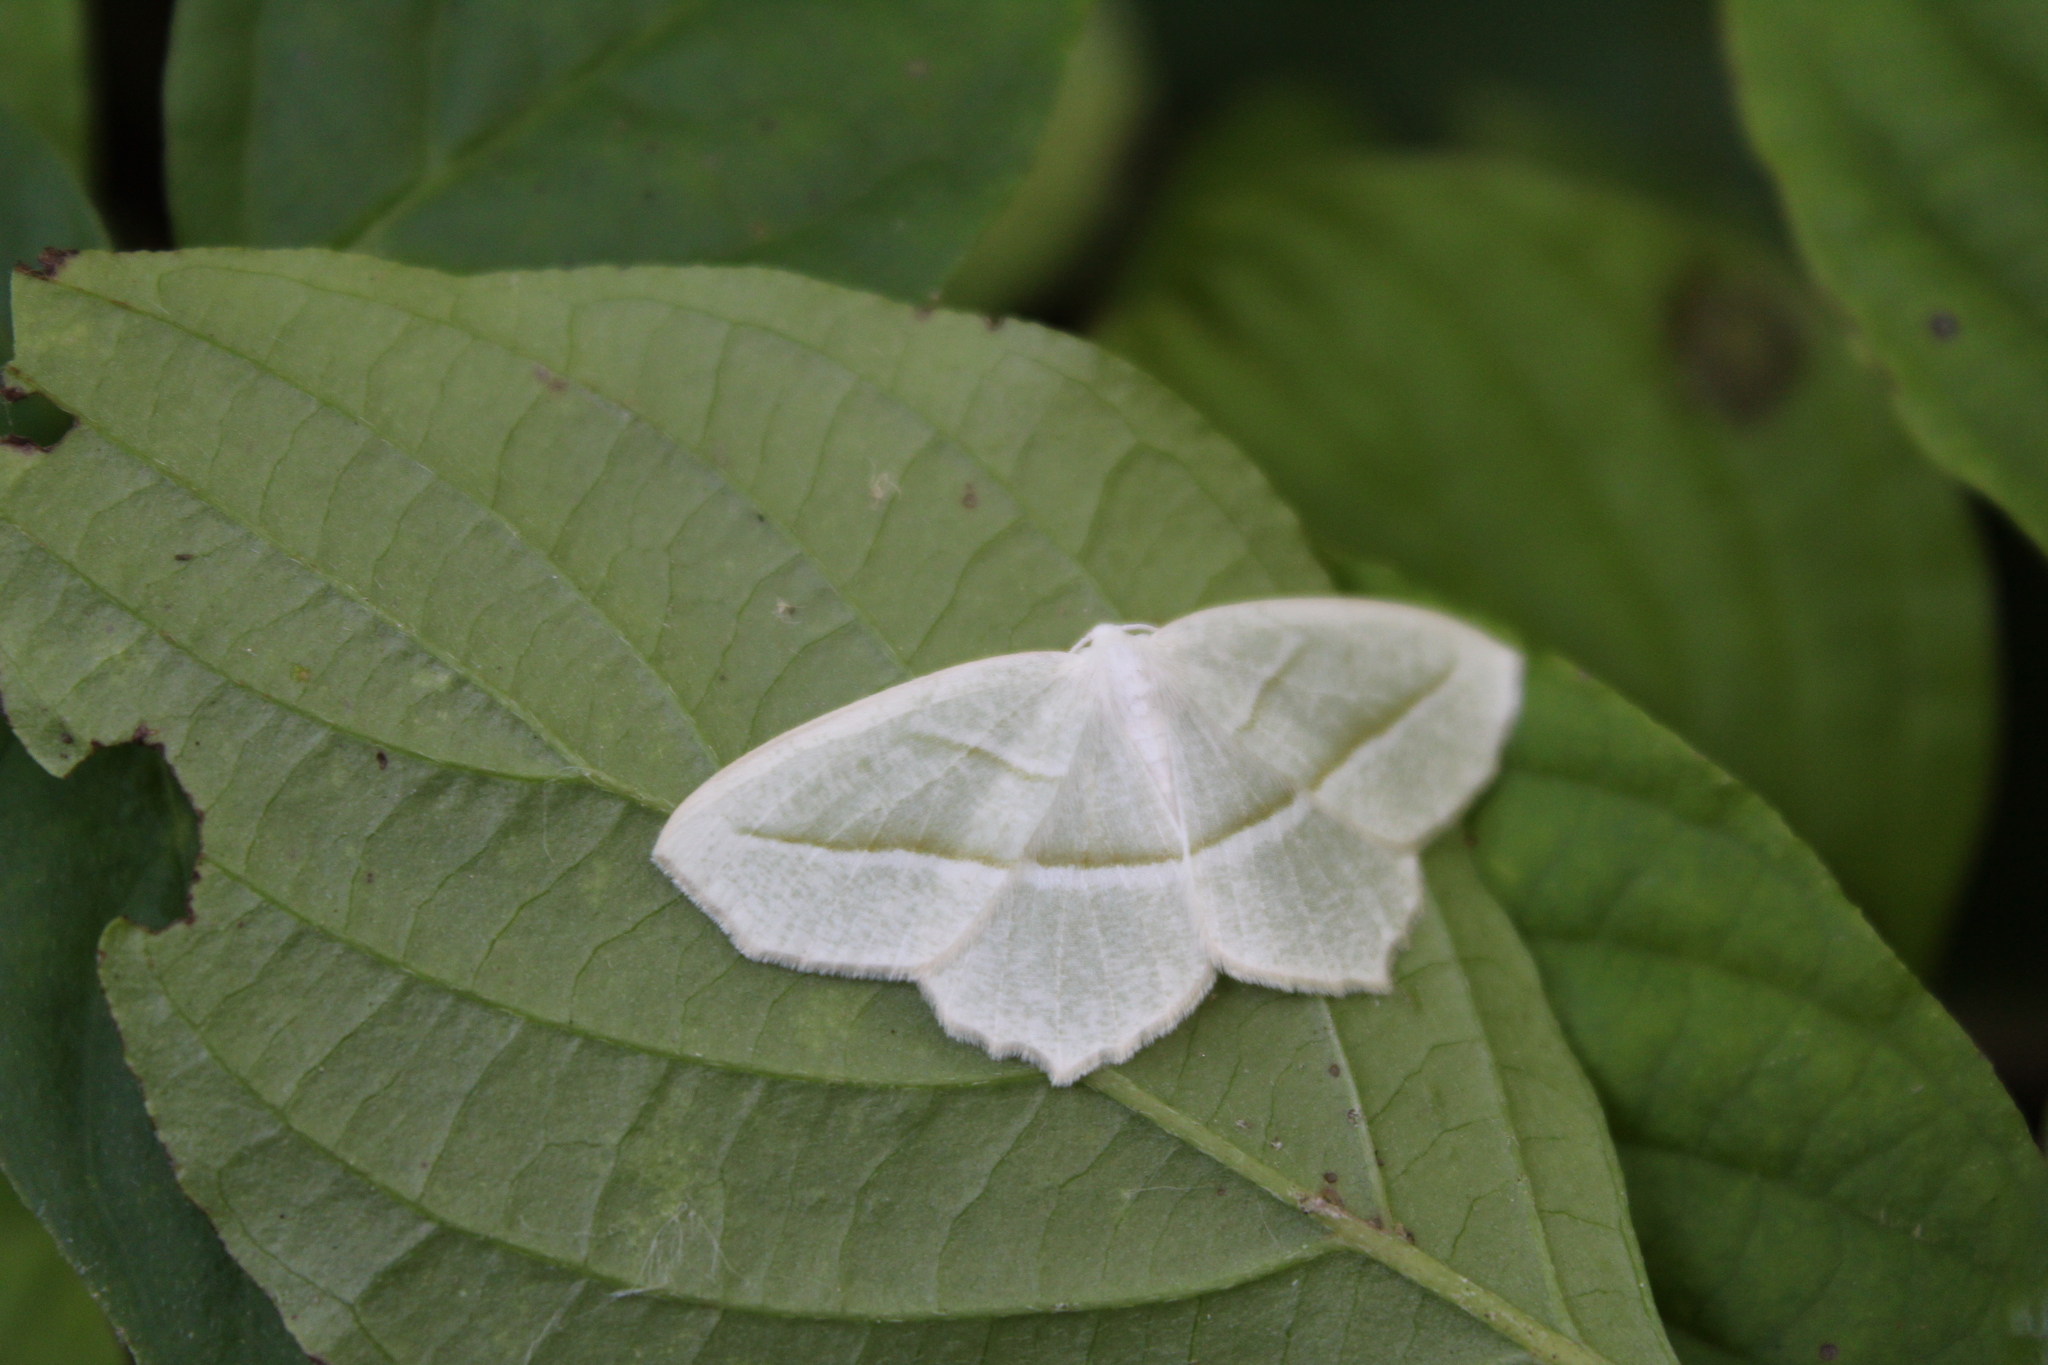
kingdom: Animalia
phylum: Arthropoda
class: Insecta
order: Lepidoptera
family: Geometridae
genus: Campaea
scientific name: Campaea perlata
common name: Fringed looper
